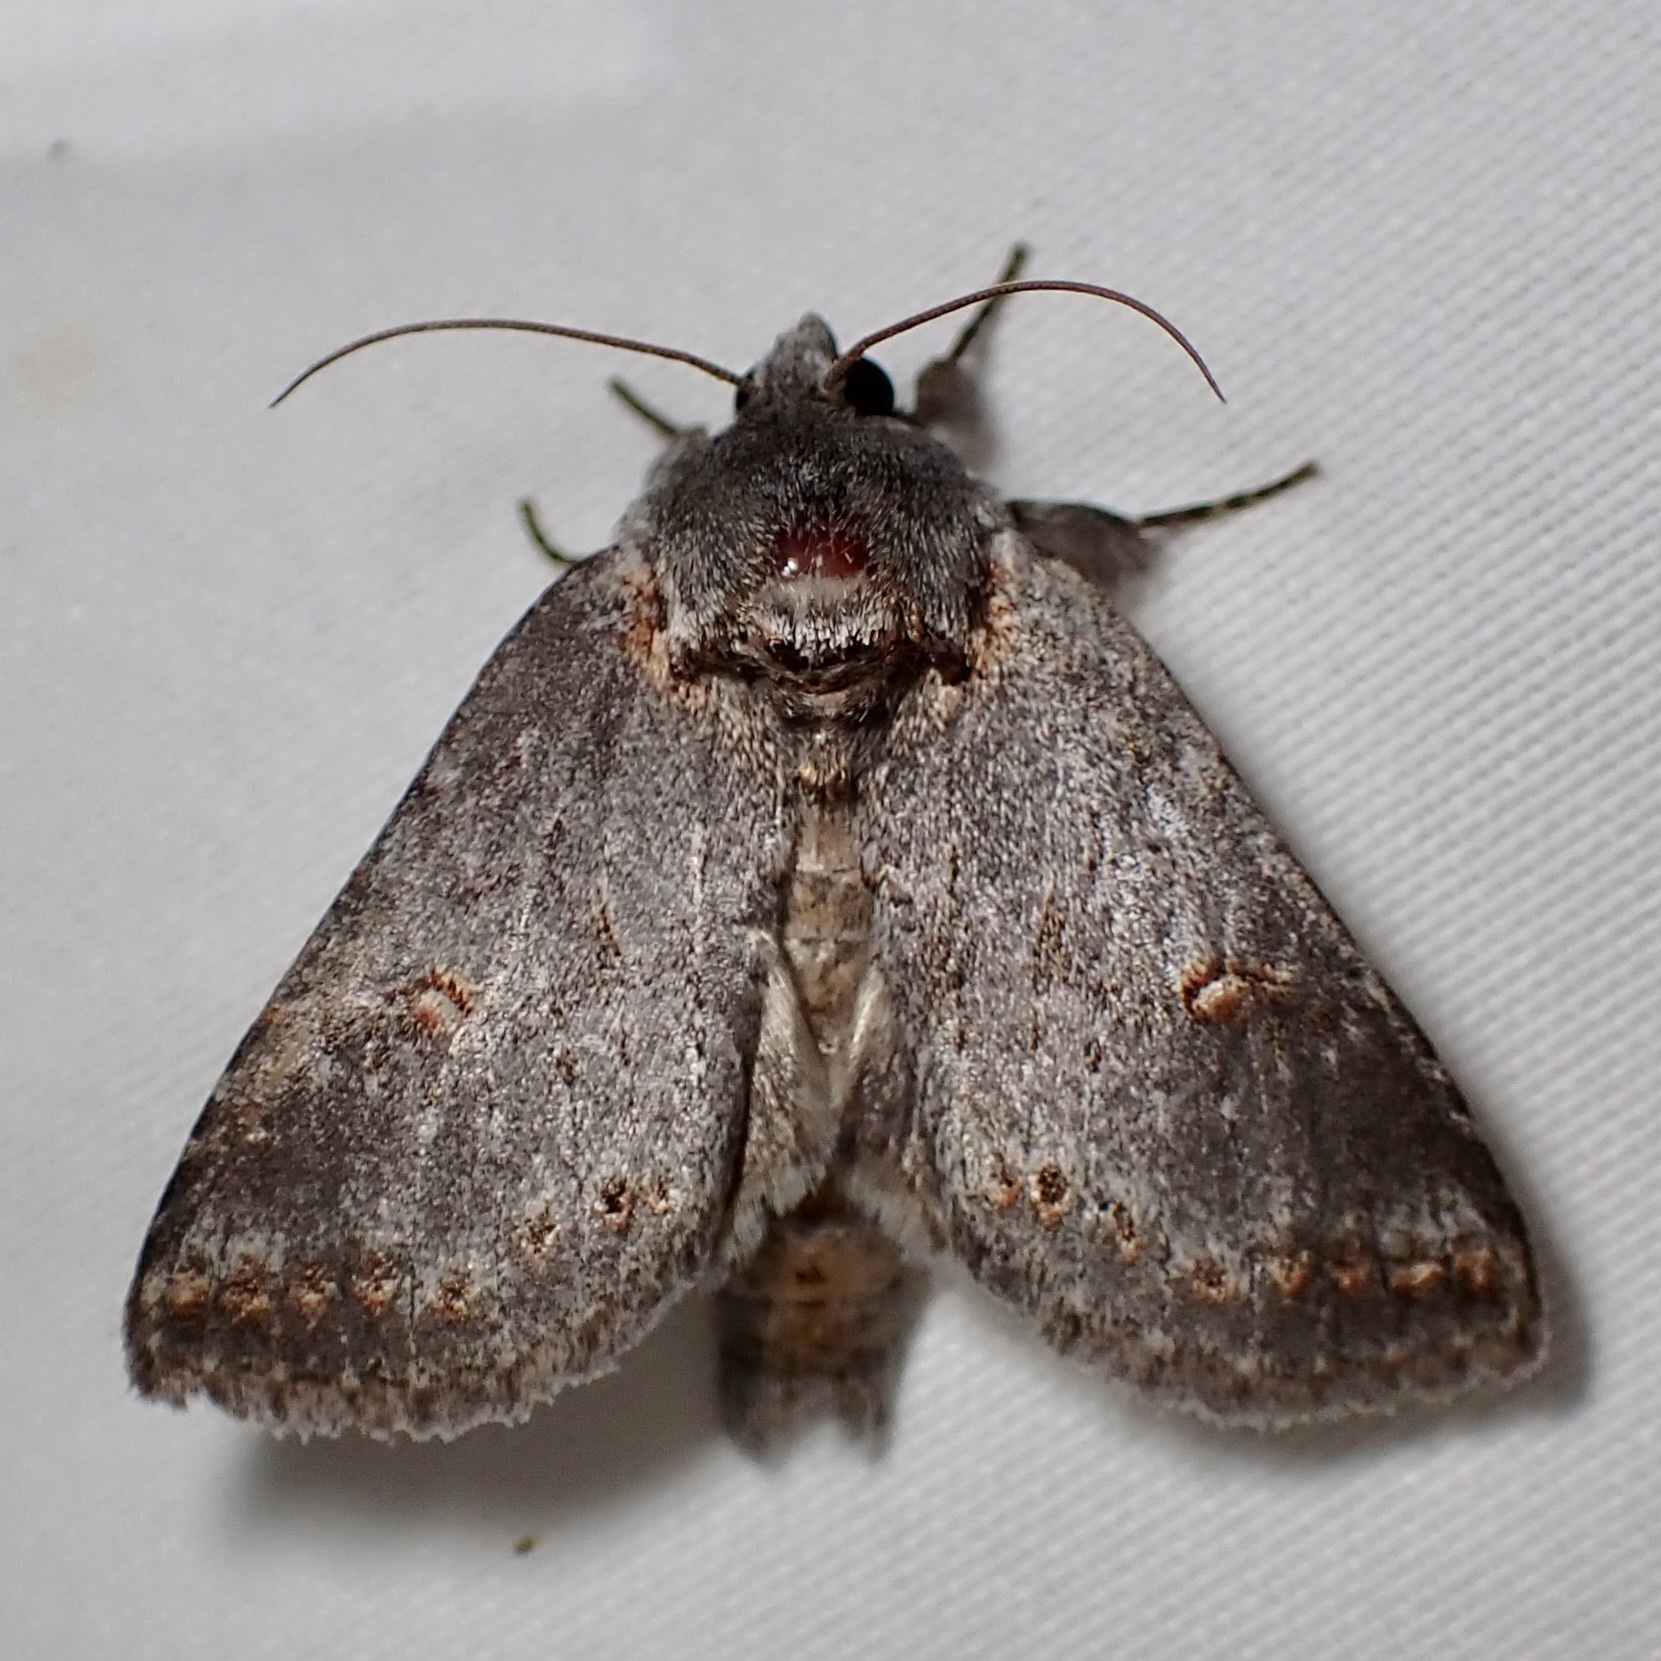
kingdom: Animalia
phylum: Arthropoda
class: Insecta
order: Lepidoptera
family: Notodontidae
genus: Theroa
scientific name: Theroa zethus
